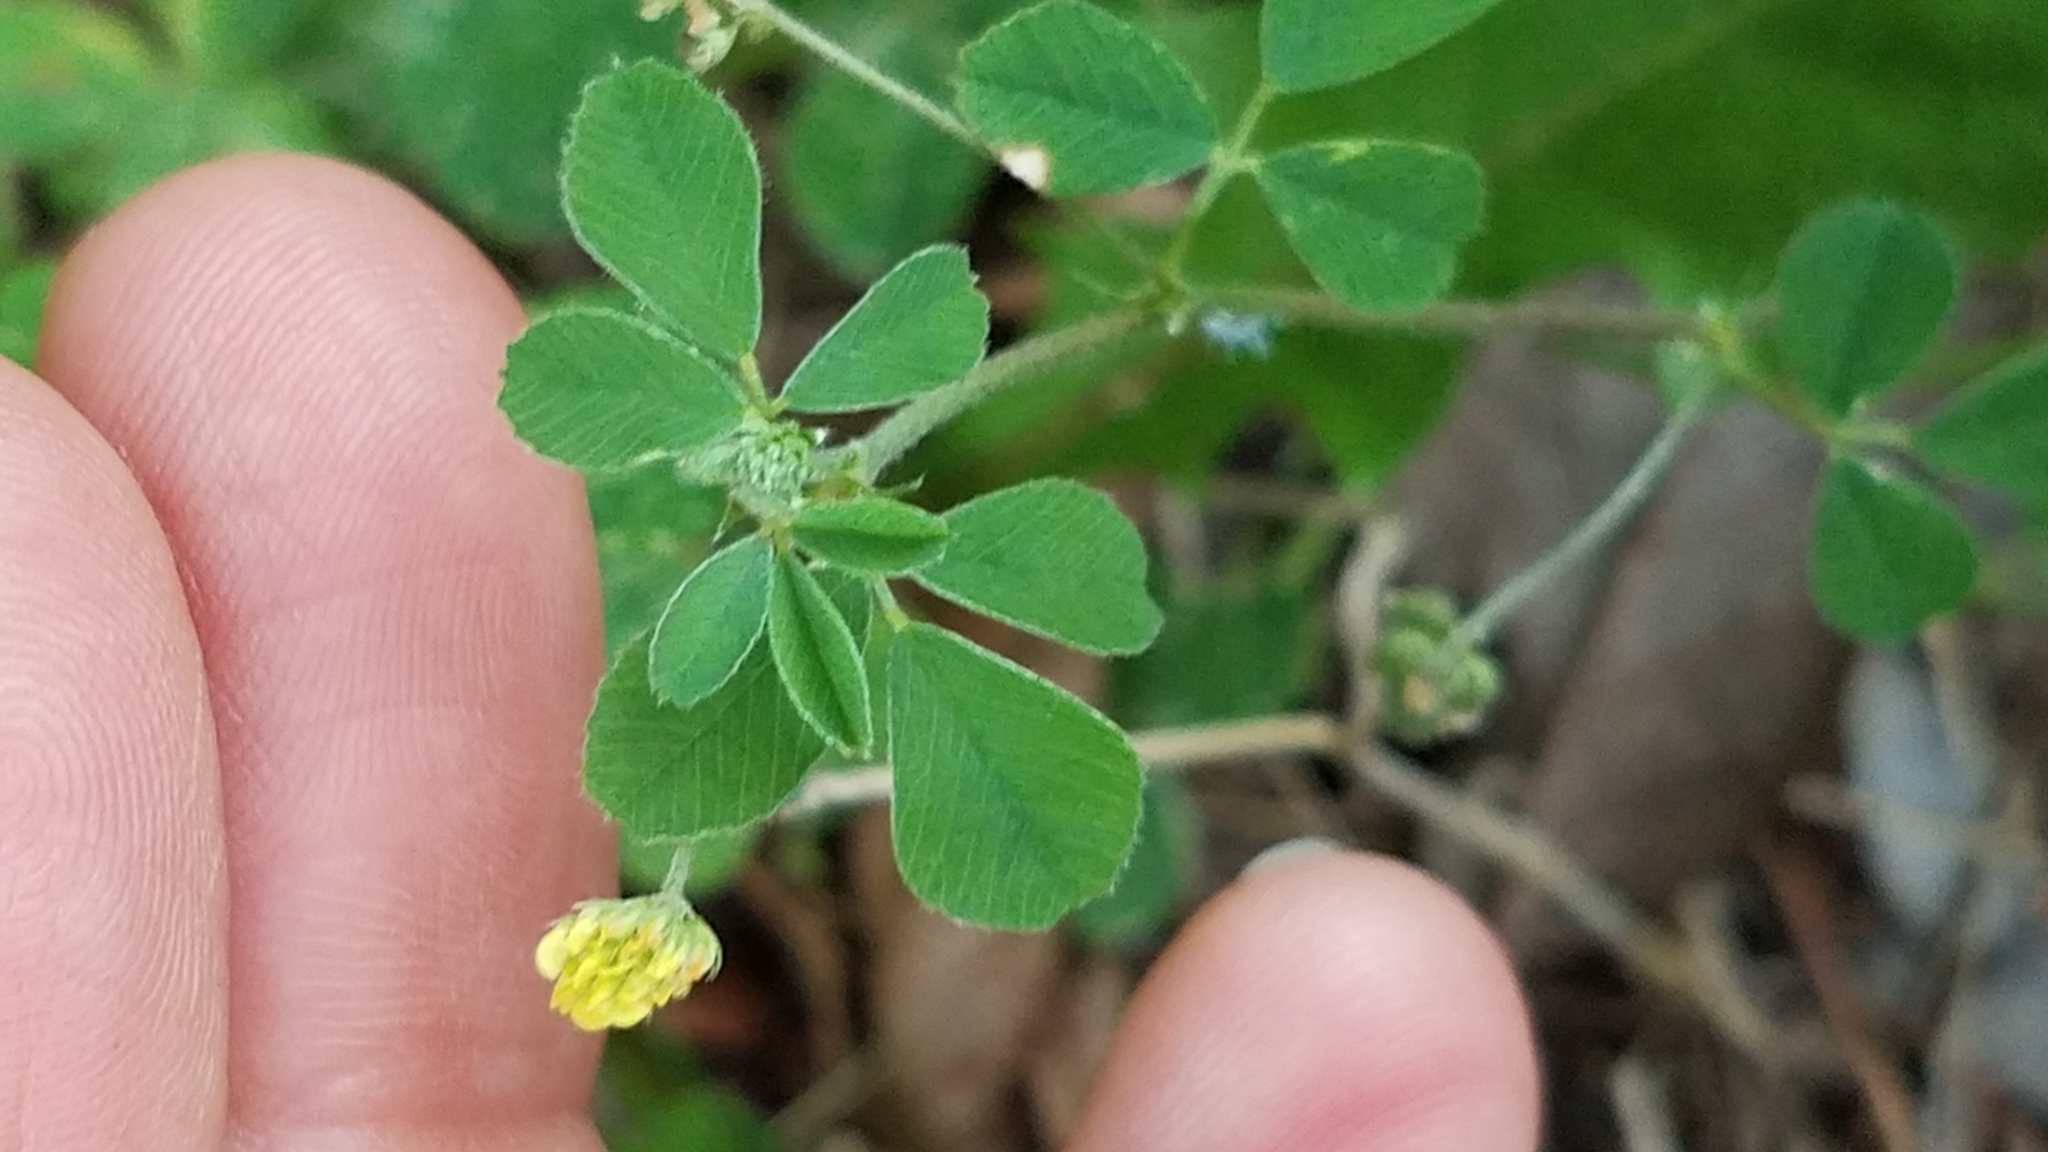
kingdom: Plantae
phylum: Tracheophyta
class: Magnoliopsida
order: Fabales
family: Fabaceae
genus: Medicago
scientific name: Medicago lupulina
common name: Black medick
